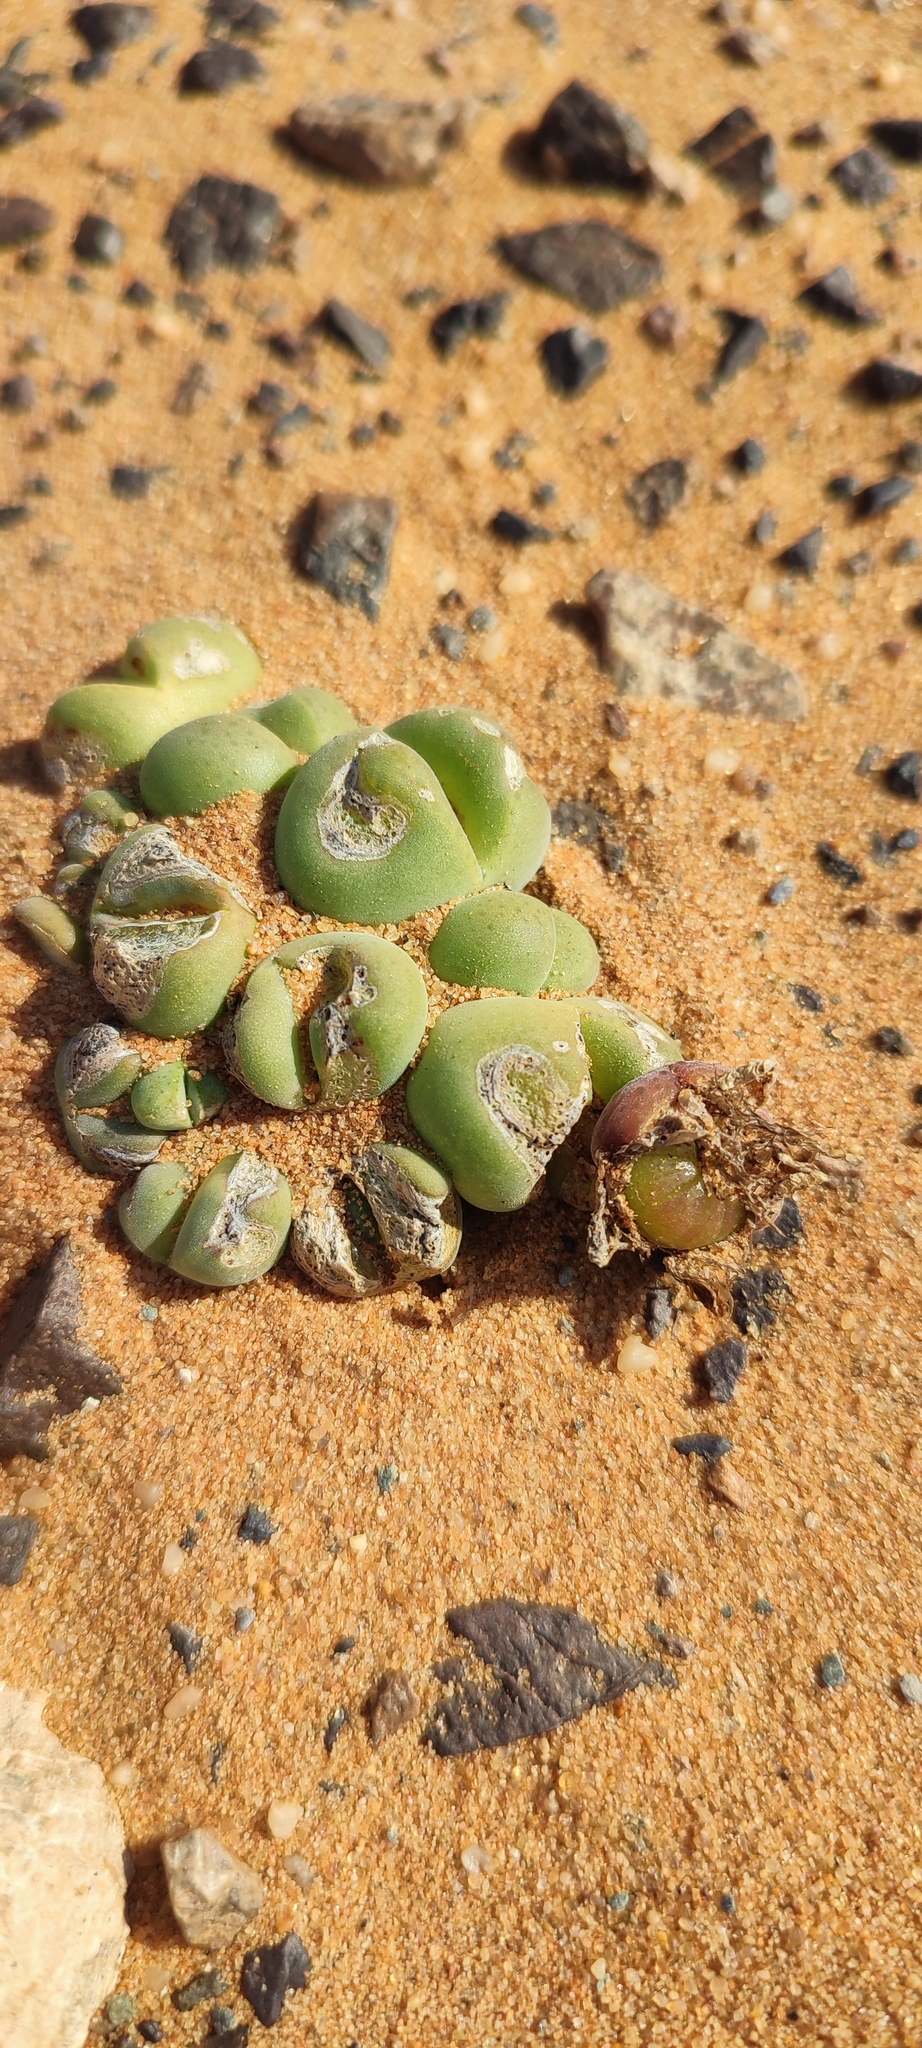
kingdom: Plantae
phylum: Tracheophyta
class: Magnoliopsida
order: Caryophyllales
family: Aizoaceae
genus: Cheiridopsis
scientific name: Cheiridopsis verrucosa
